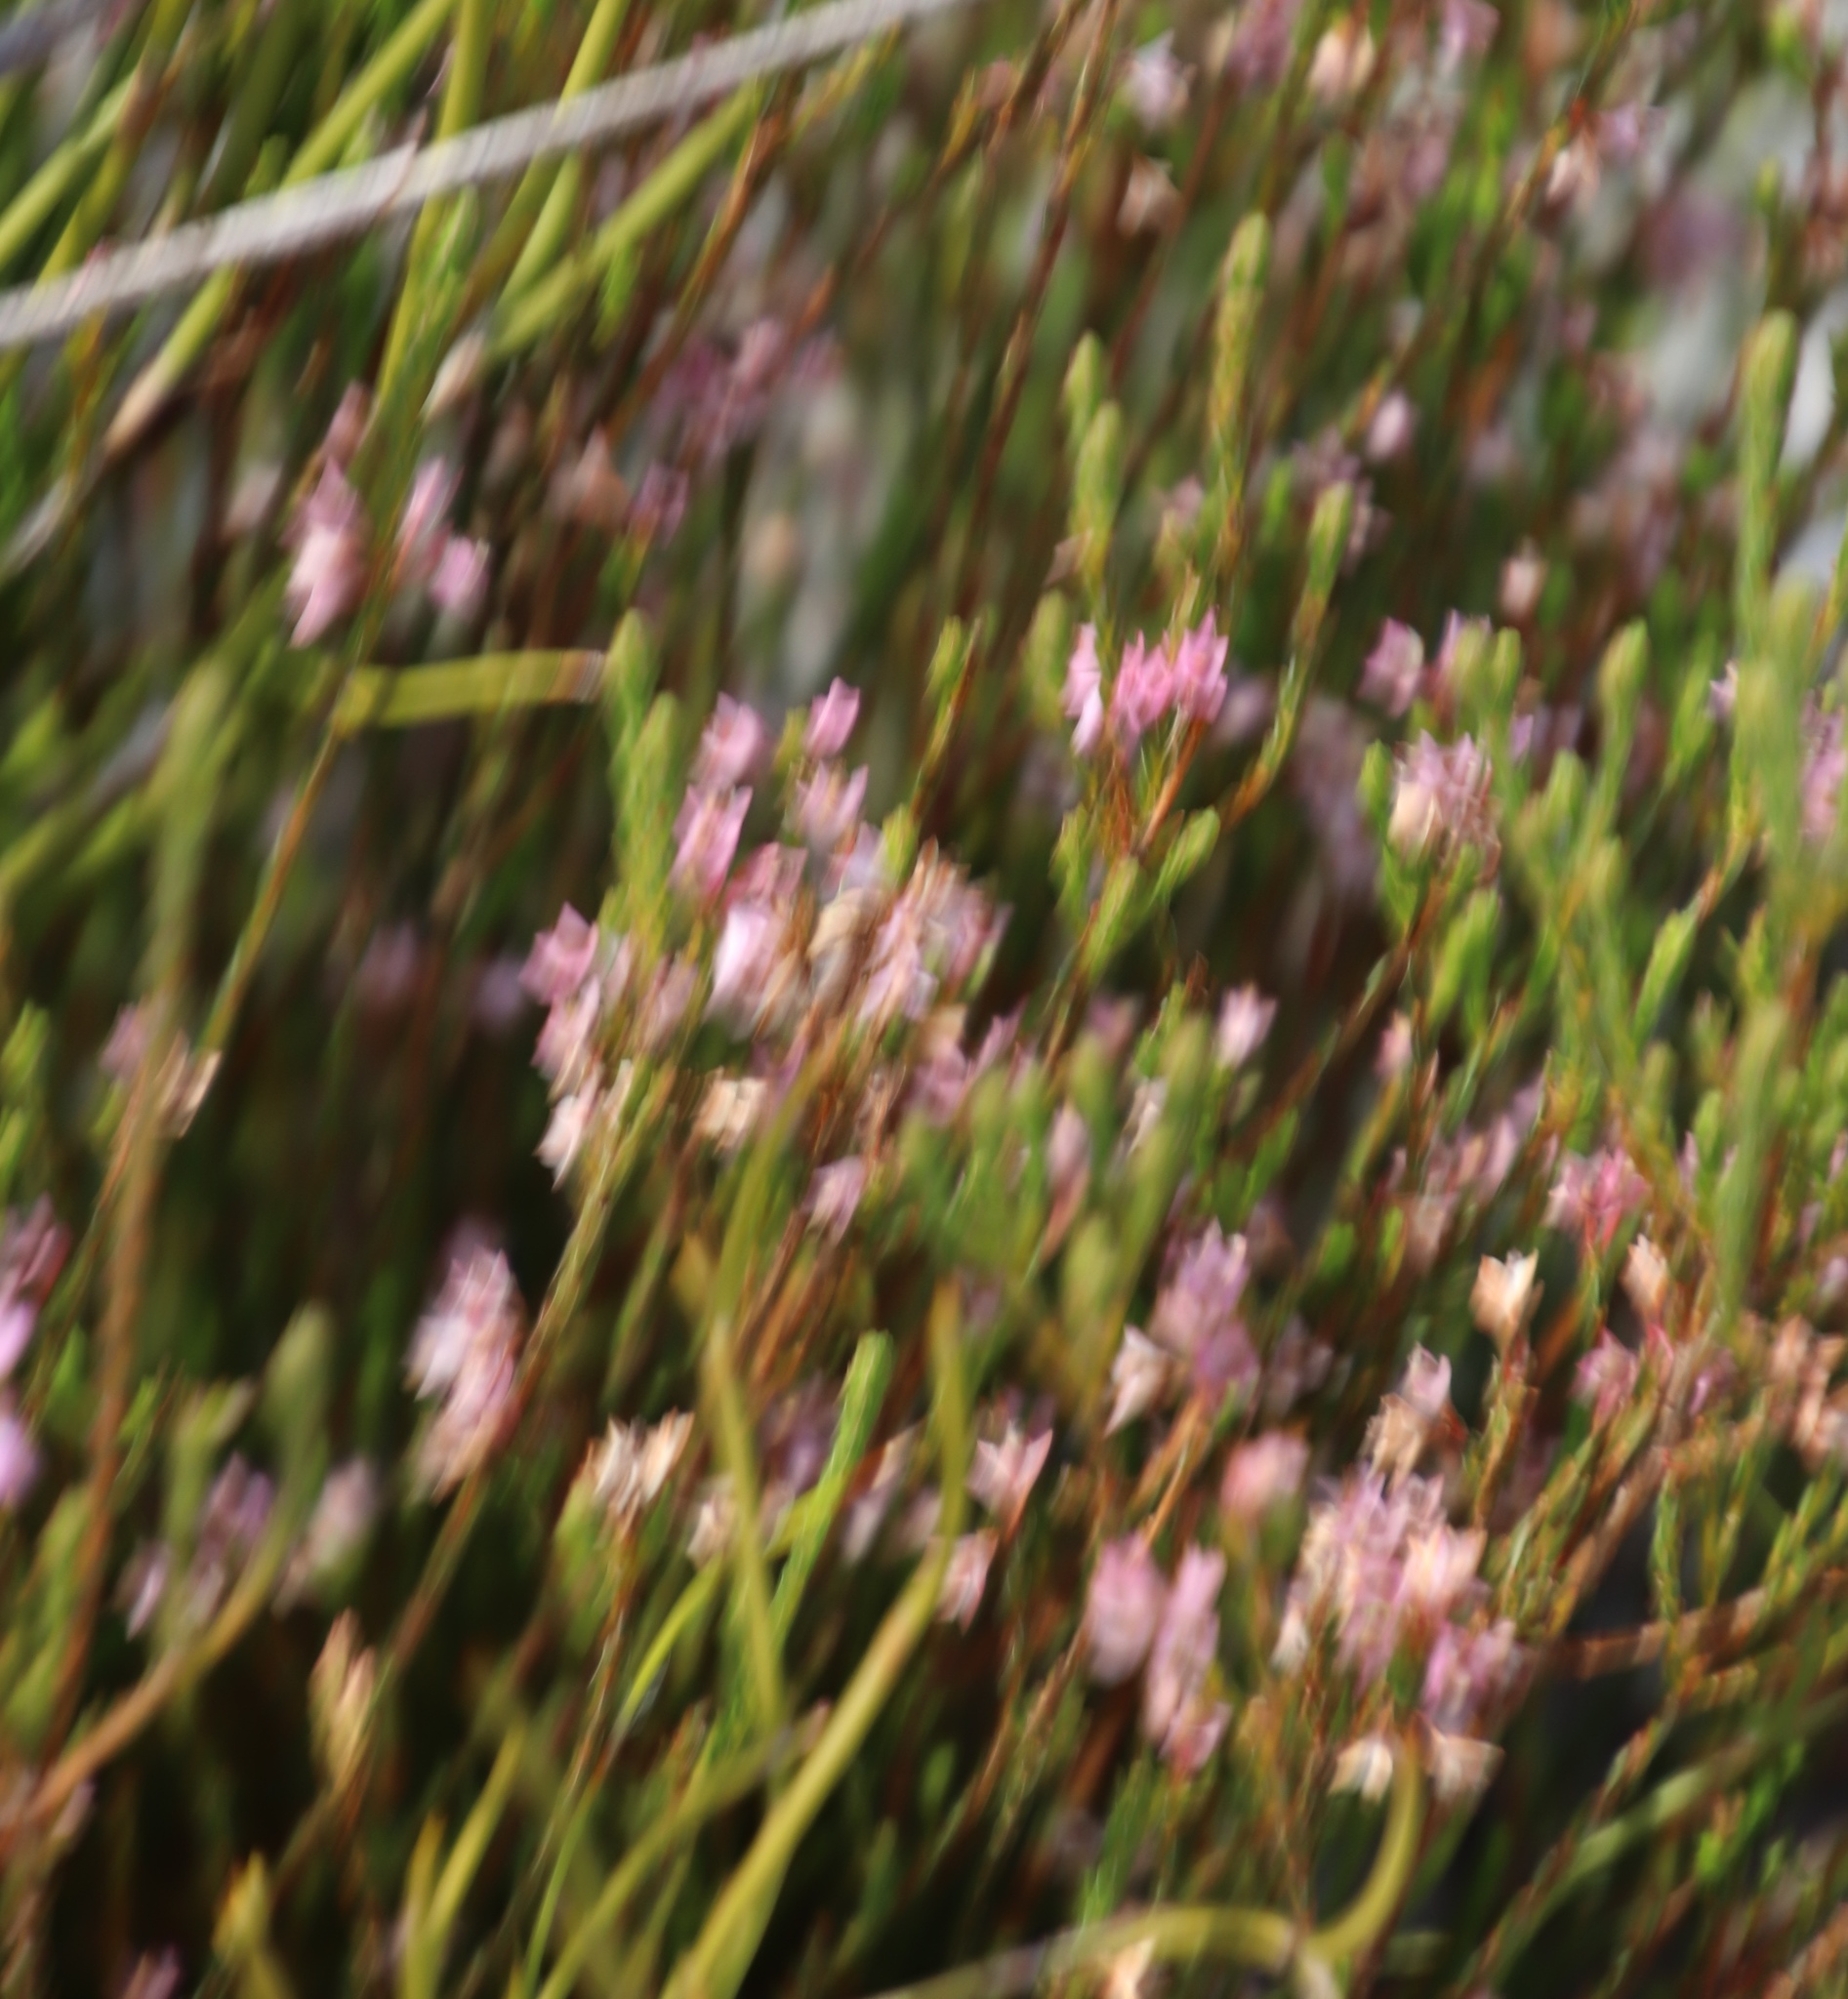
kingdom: Plantae
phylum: Tracheophyta
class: Magnoliopsida
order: Ericales
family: Ericaceae
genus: Erica
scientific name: Erica articularis
